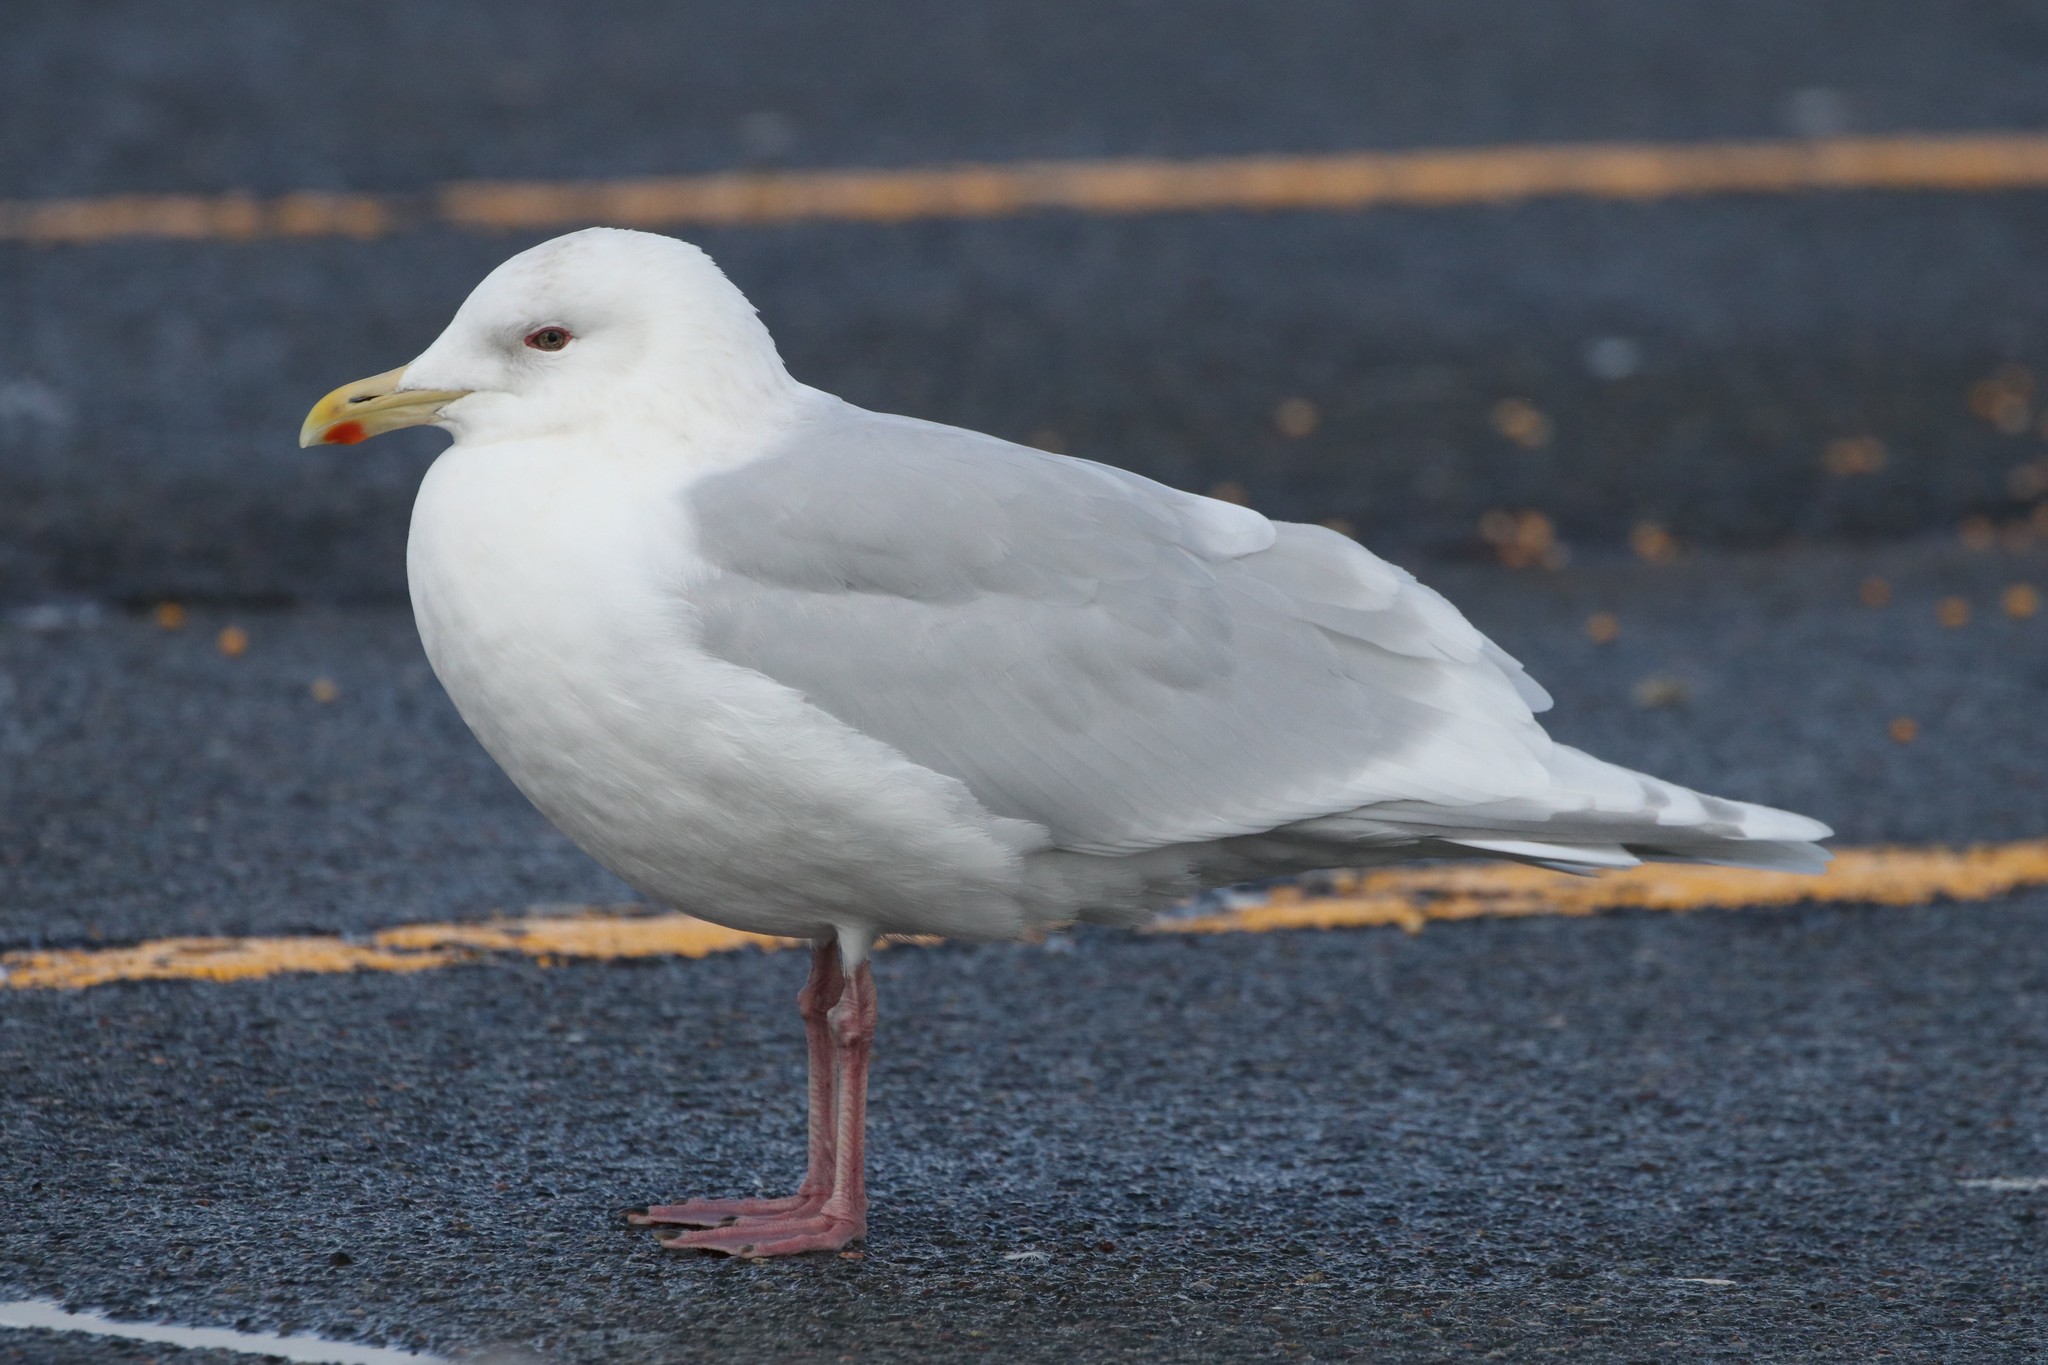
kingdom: Animalia
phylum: Chordata
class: Aves
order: Charadriiformes
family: Laridae
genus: Larus
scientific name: Larus glaucoides
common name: Iceland gull
